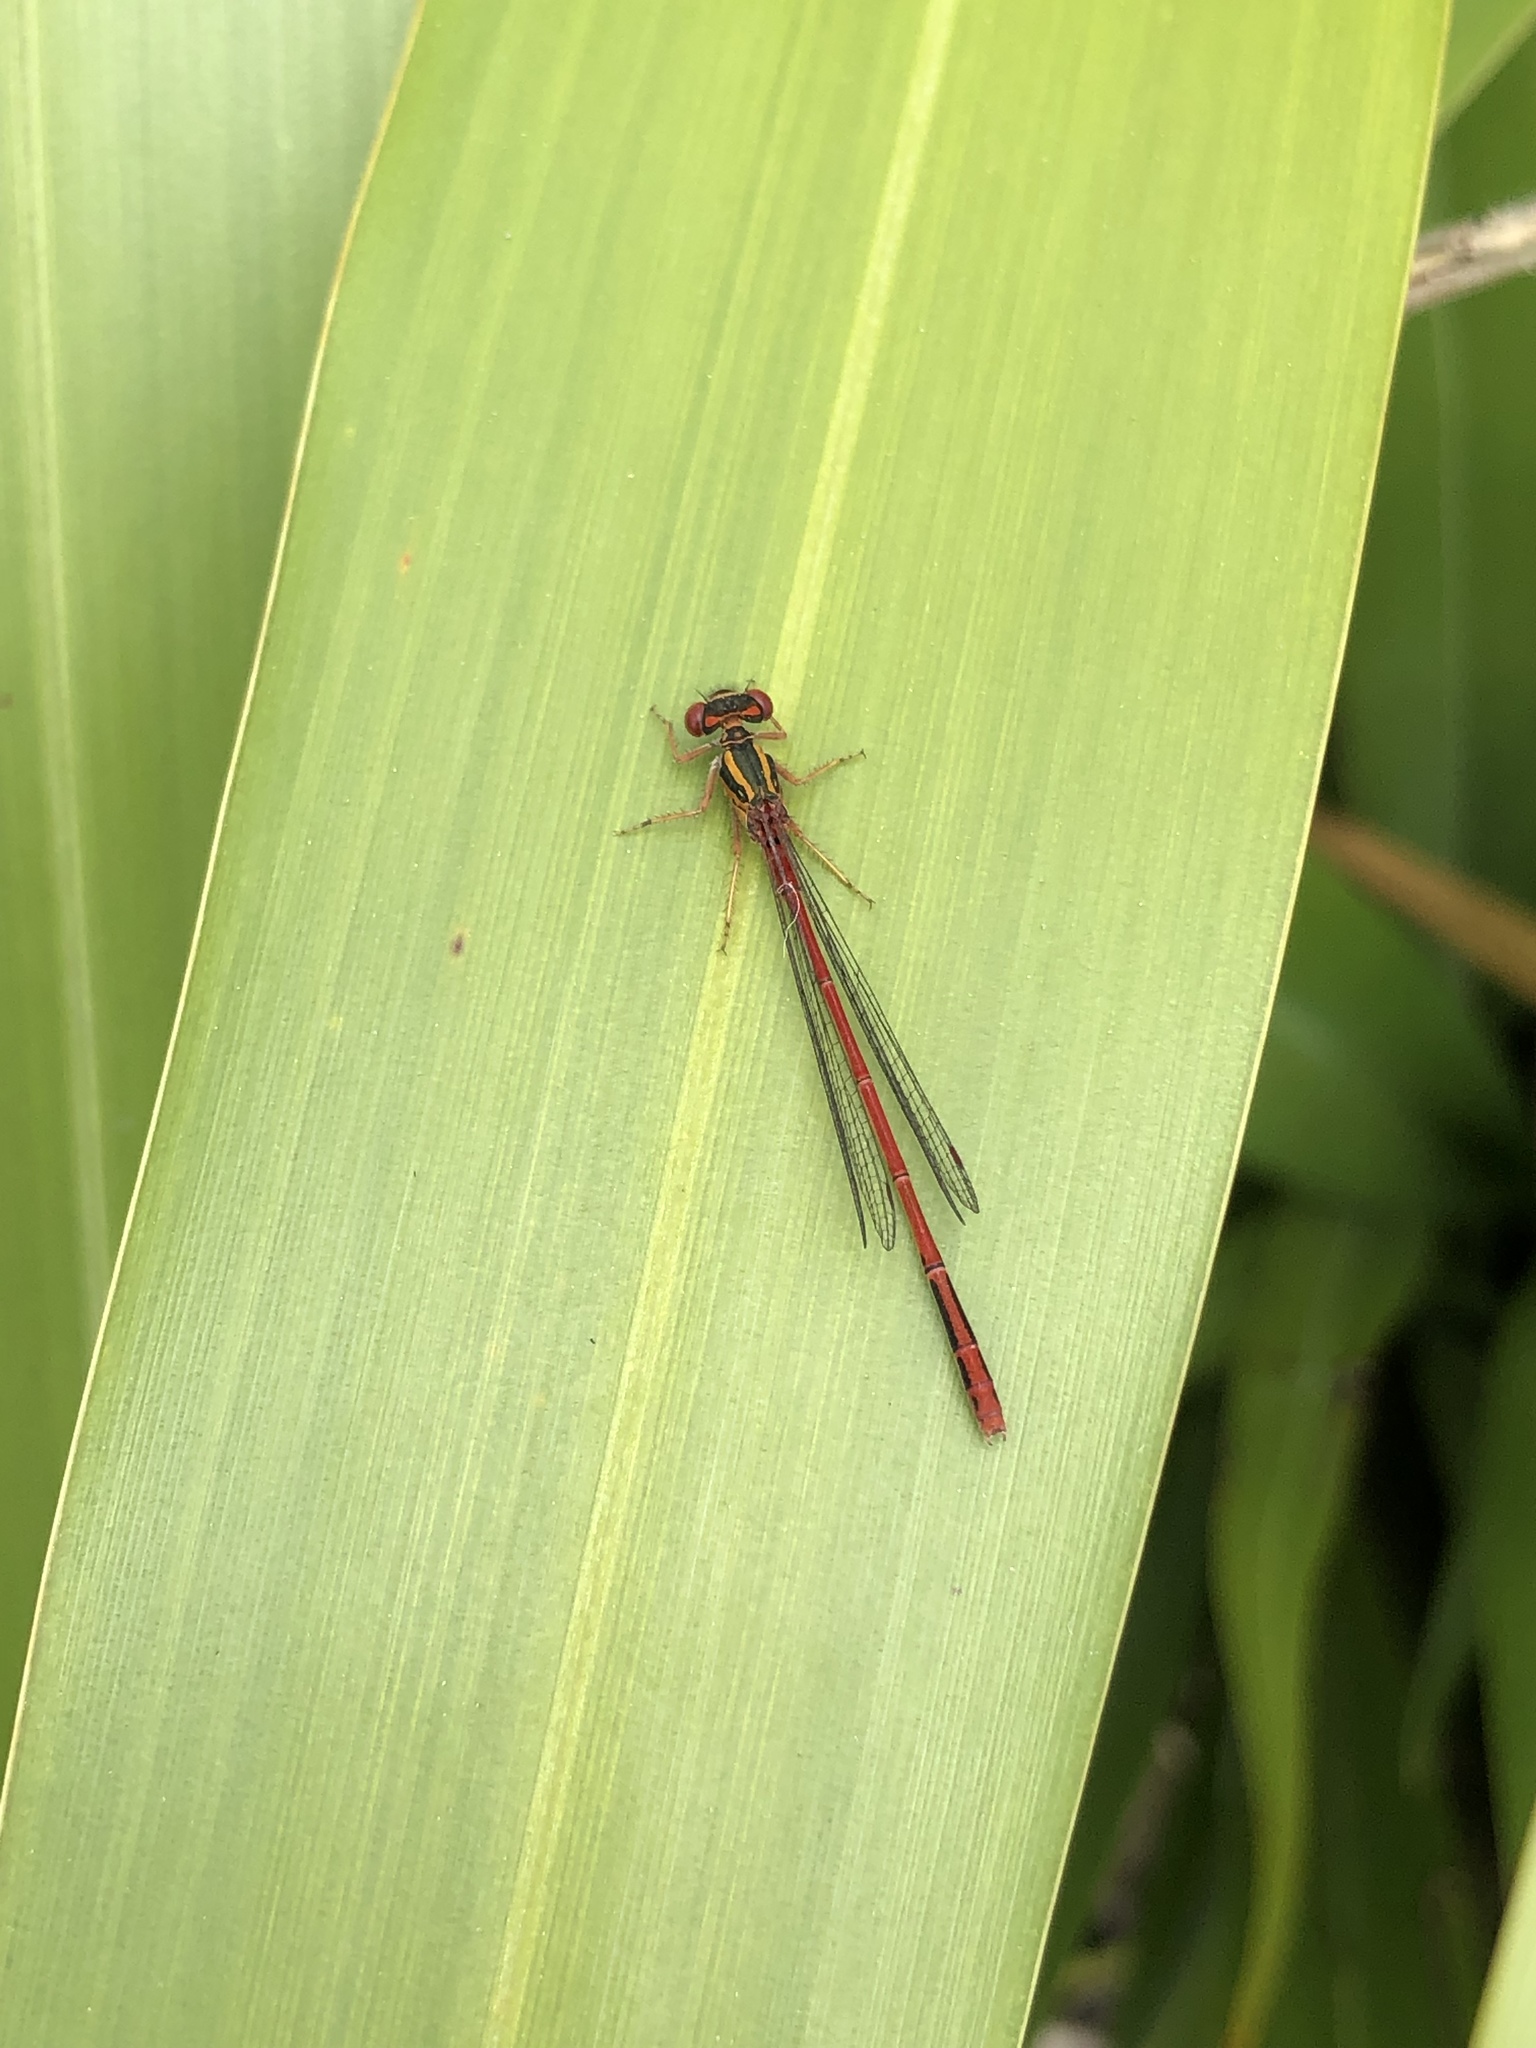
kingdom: Animalia
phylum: Arthropoda
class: Insecta
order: Odonata
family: Coenagrionidae
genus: Xanthocnemis
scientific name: Xanthocnemis zealandica
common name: Common redcoat damselfly
